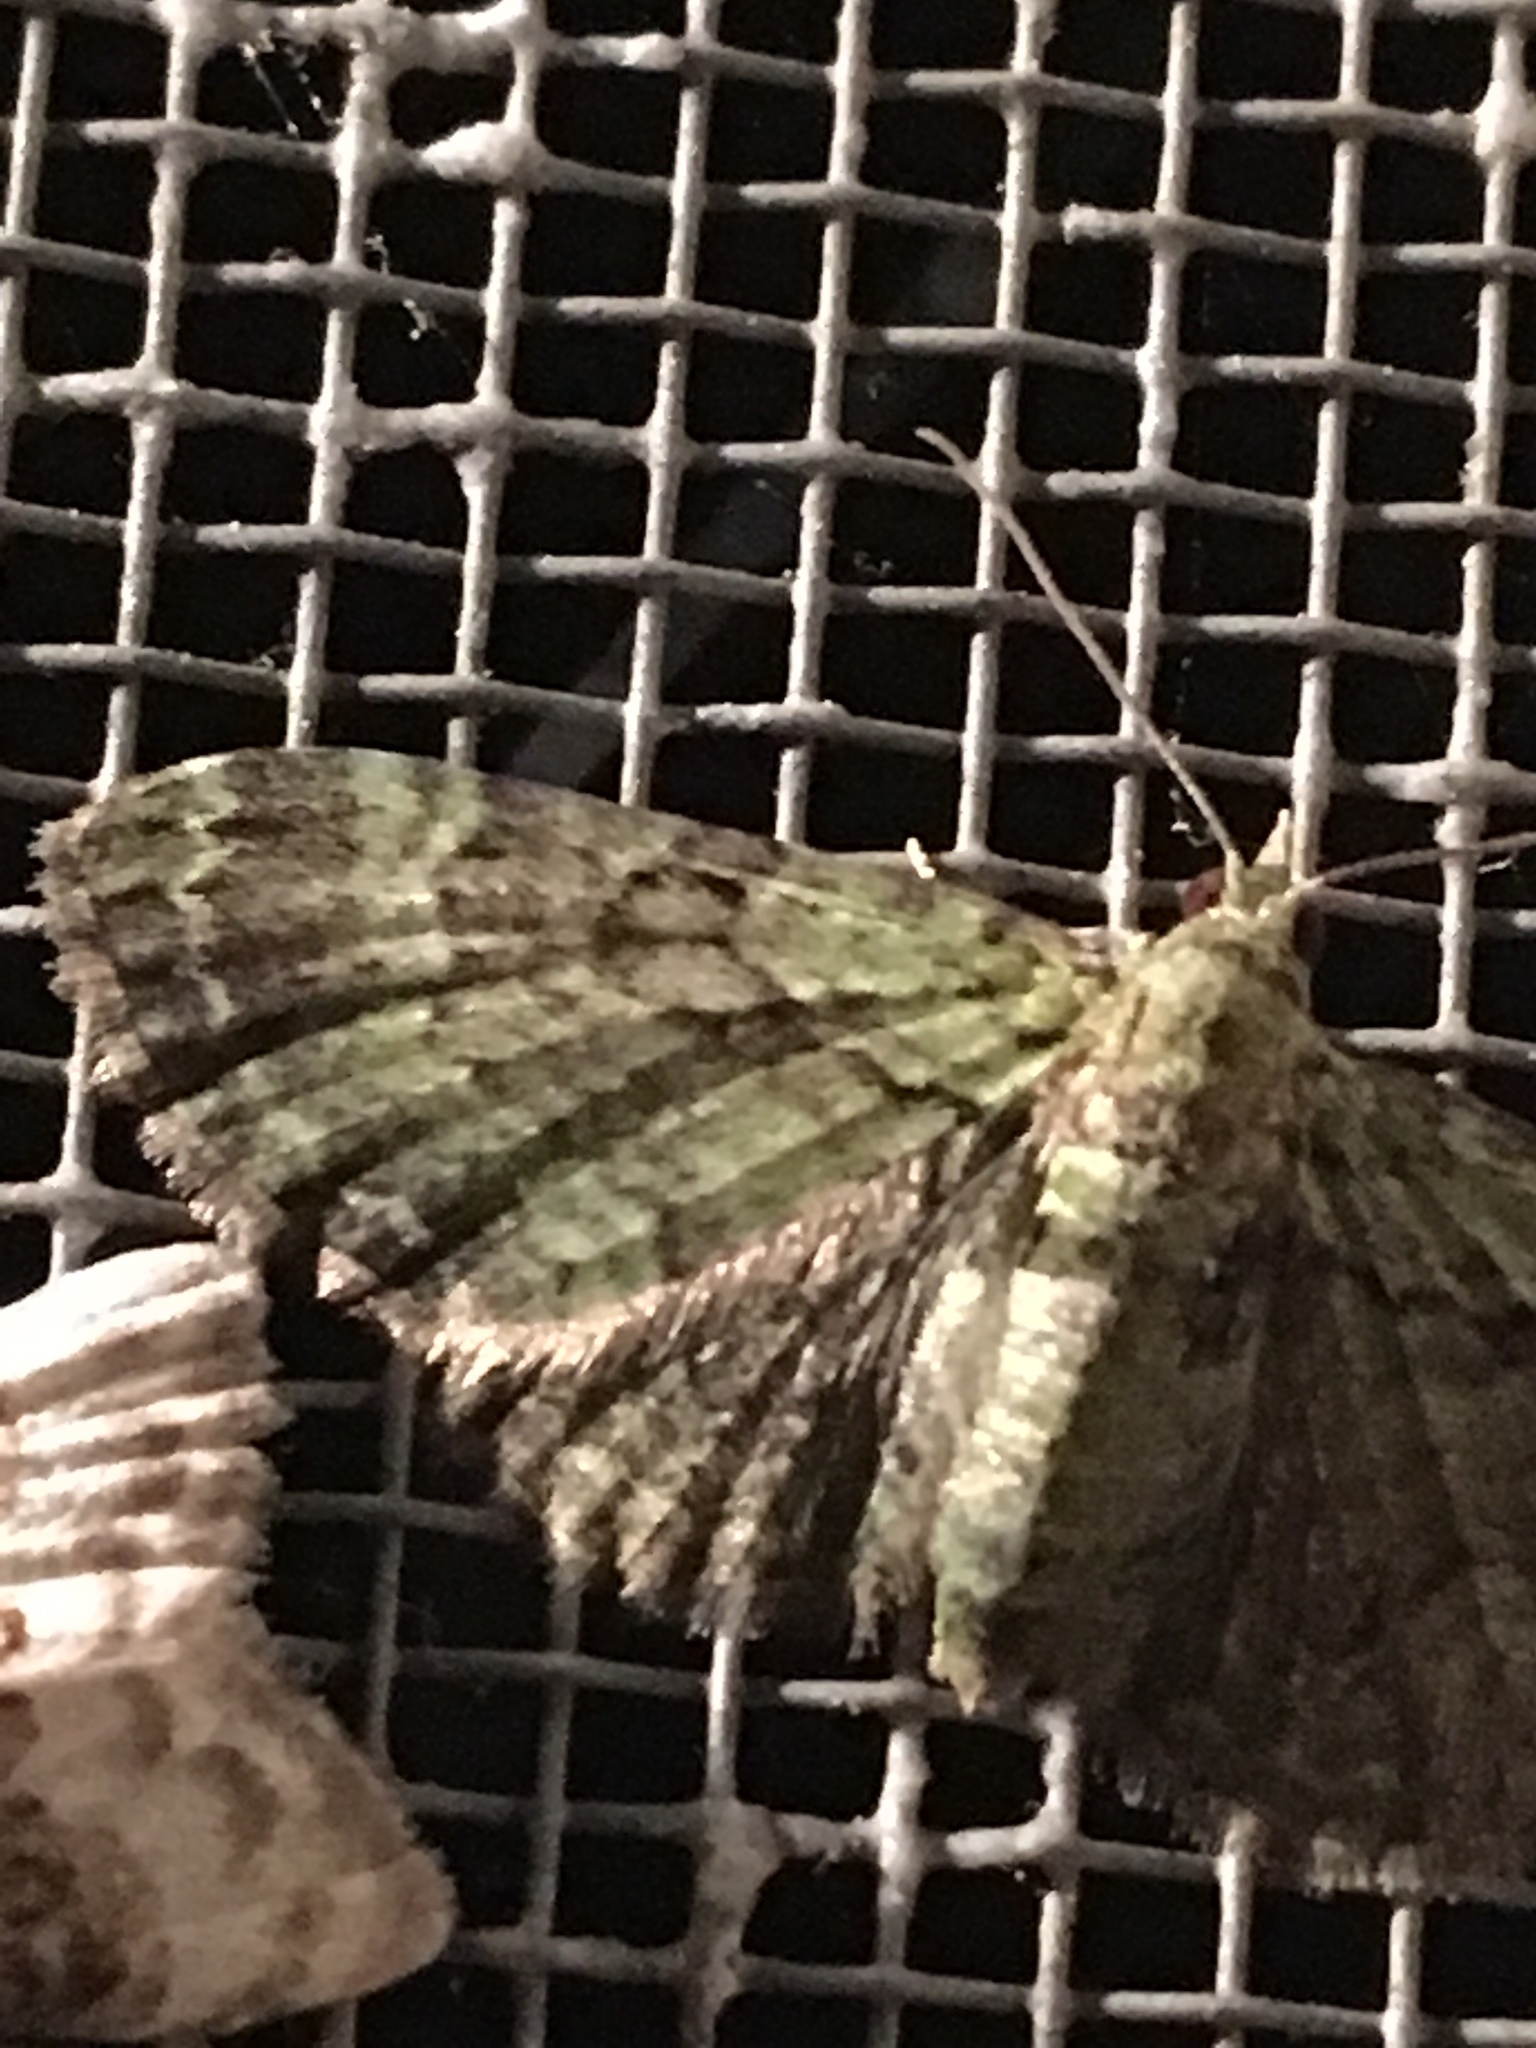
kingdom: Animalia
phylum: Arthropoda
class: Insecta
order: Lepidoptera
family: Geometridae
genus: Pasiphila
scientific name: Pasiphila rectangulata
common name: Green pug
